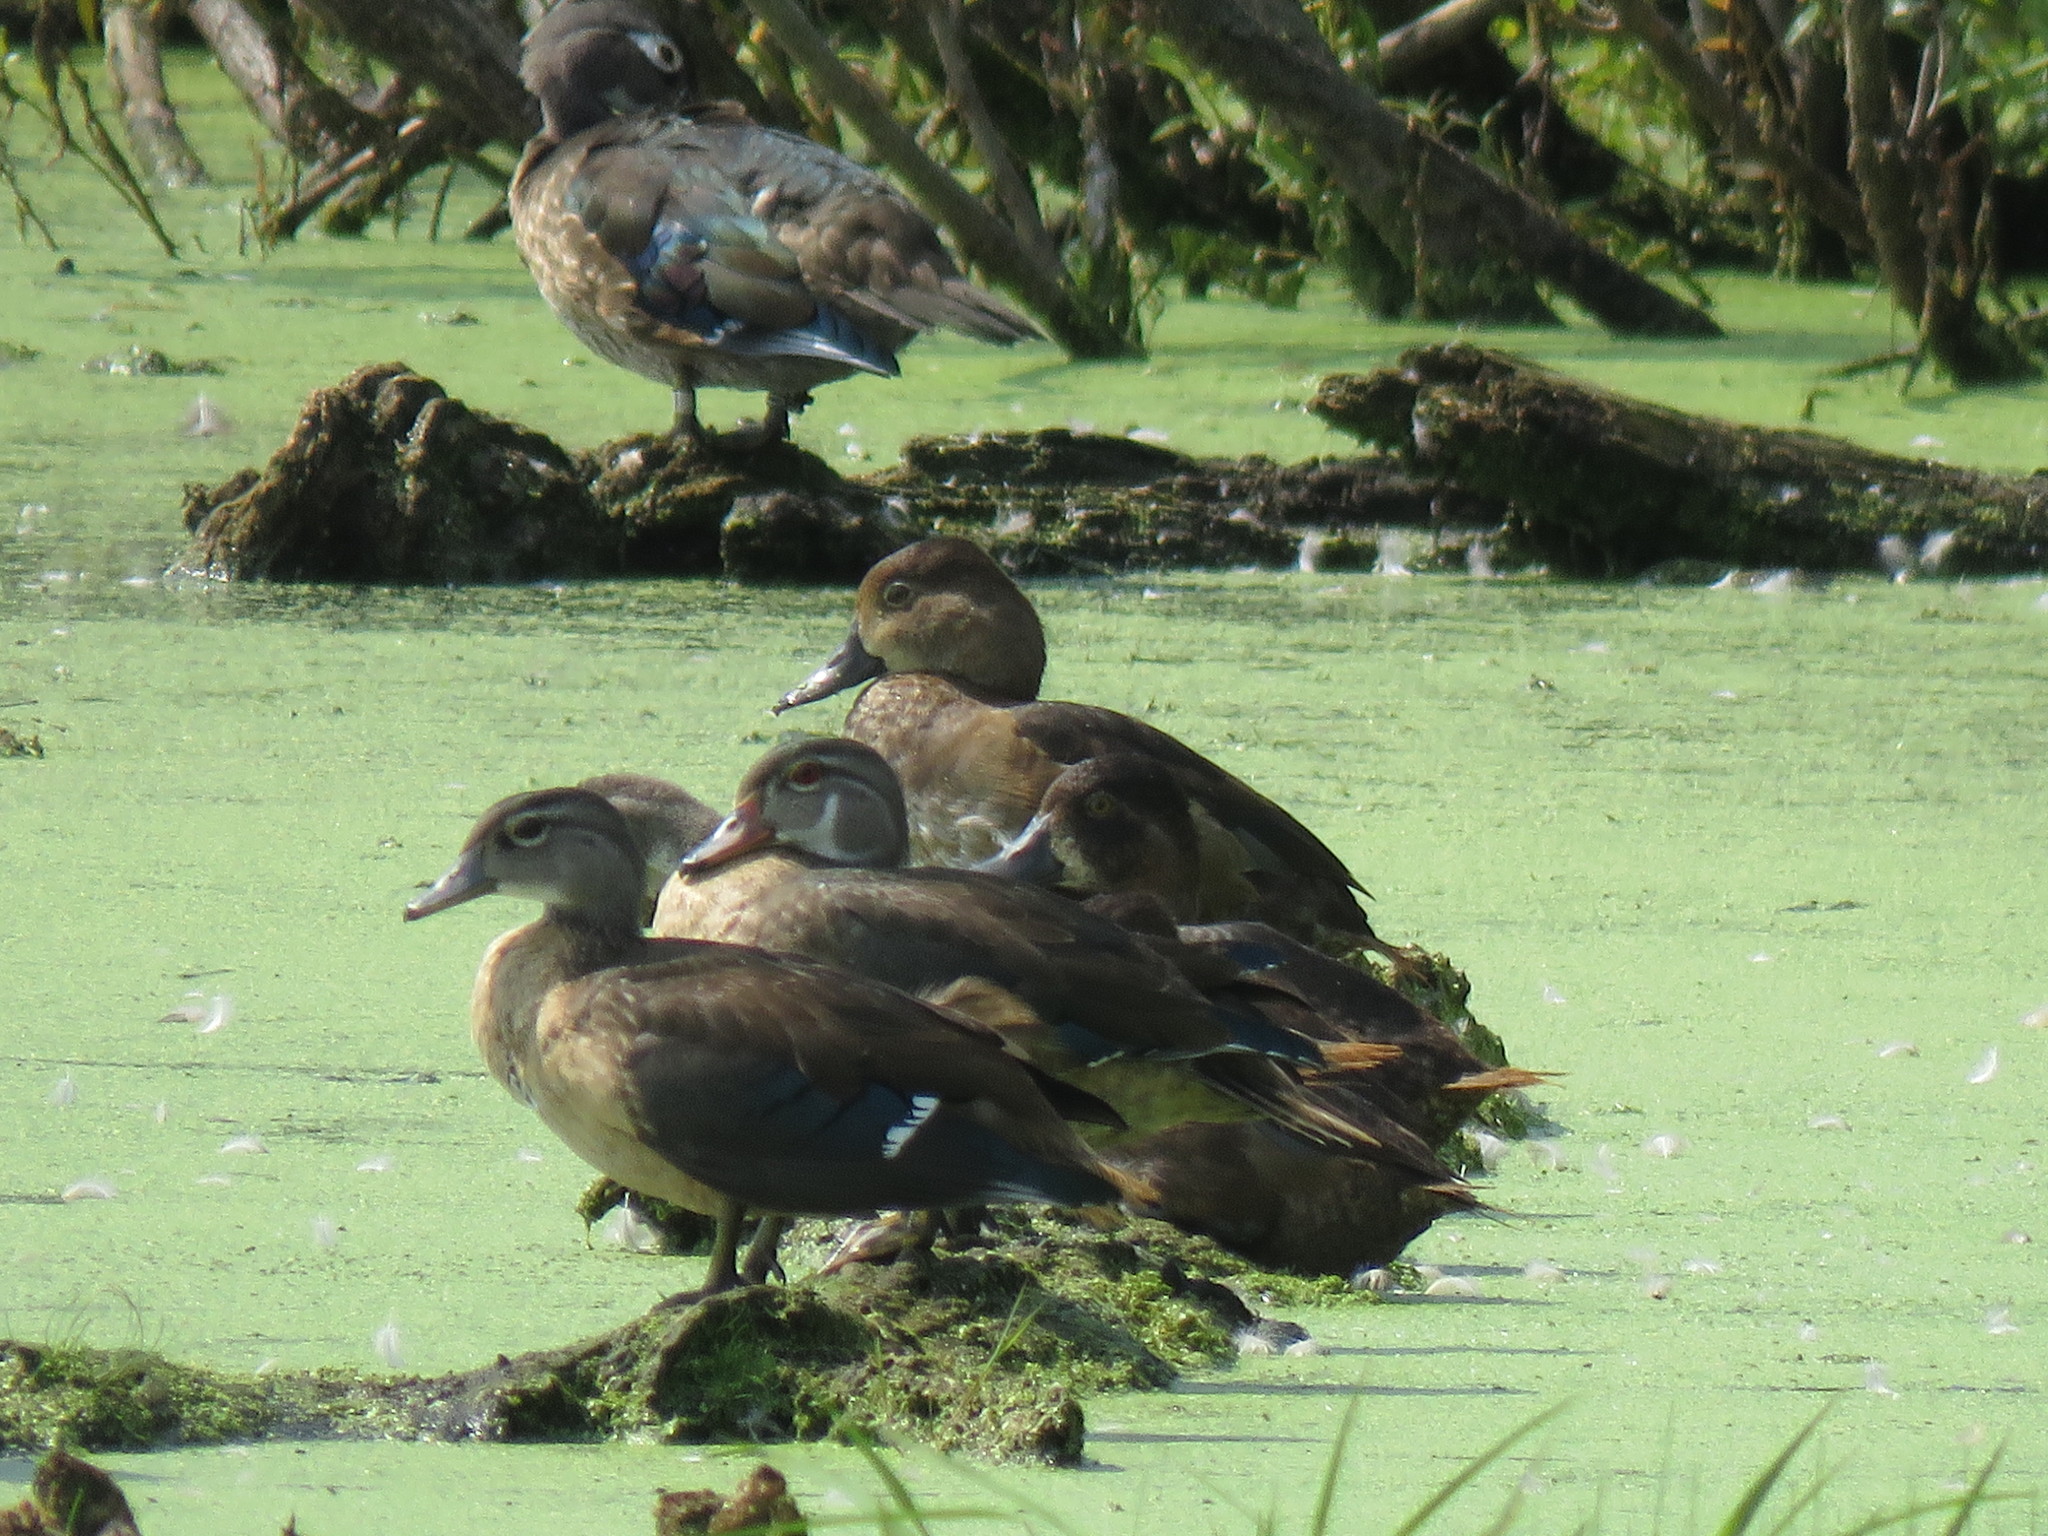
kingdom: Animalia
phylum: Chordata
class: Aves
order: Anseriformes
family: Anatidae
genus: Aythya
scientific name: Aythya americana
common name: Redhead
